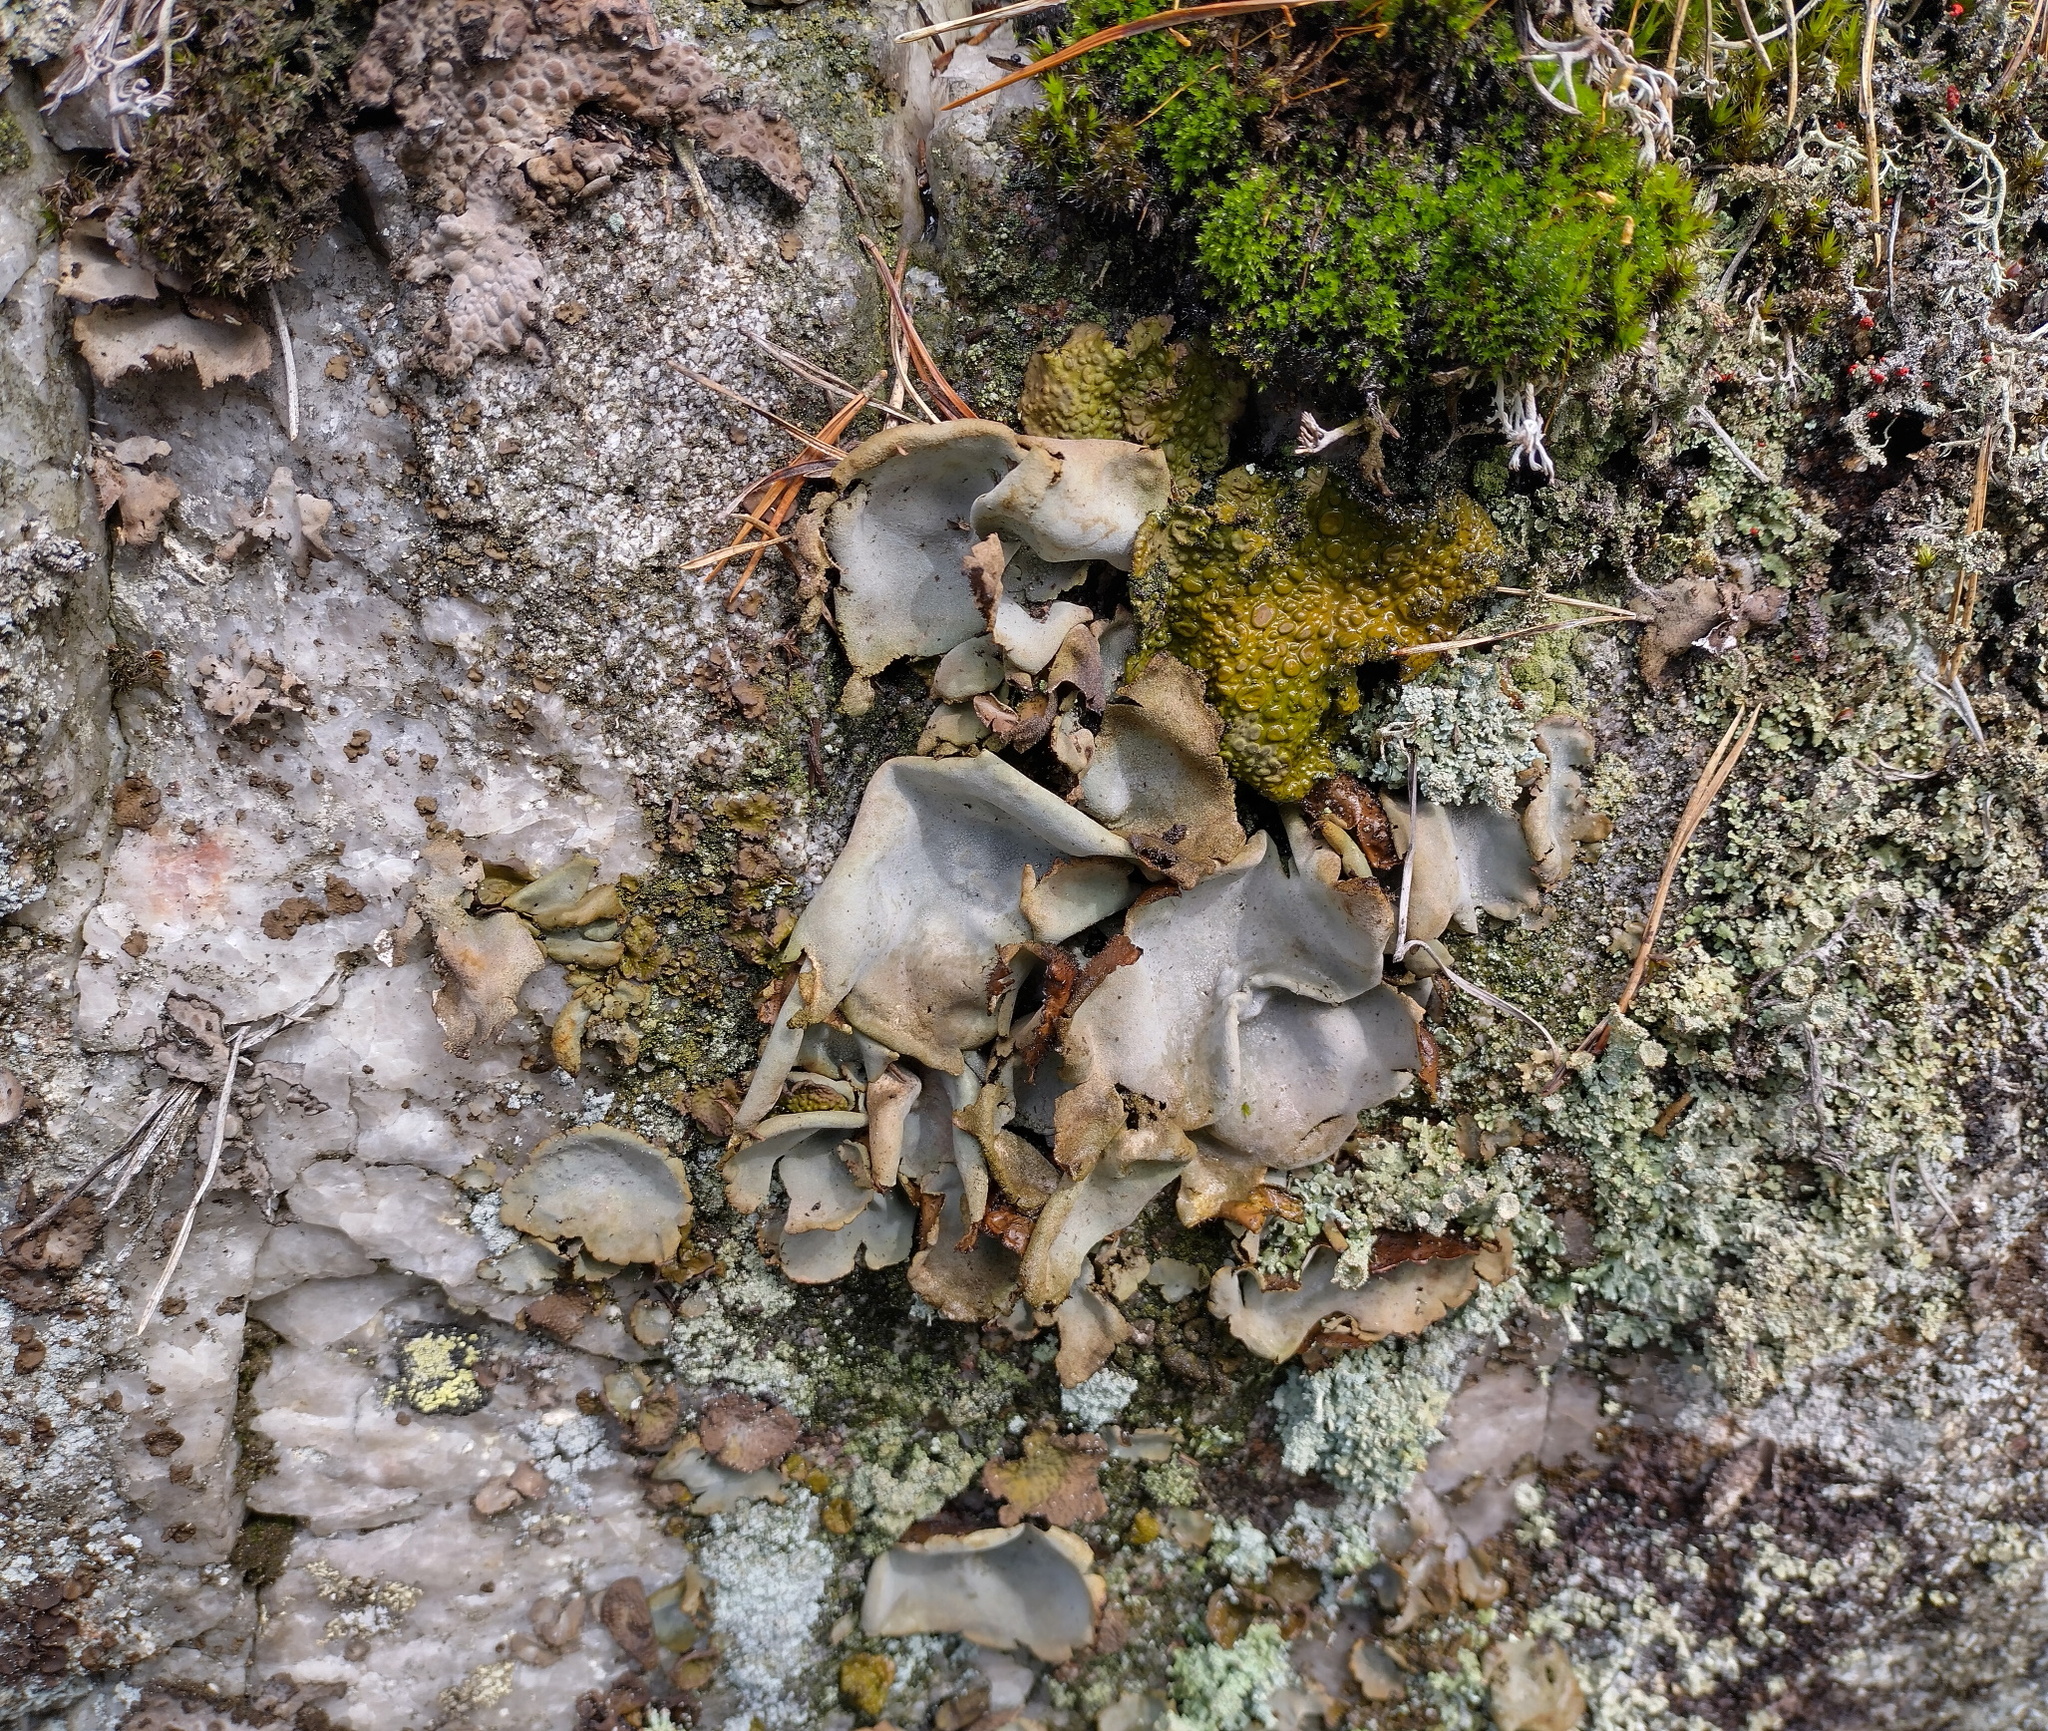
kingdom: Fungi
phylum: Ascomycota
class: Lecanoromycetes
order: Umbilicariales
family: Umbilicariaceae
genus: Umbilicaria
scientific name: Umbilicaria hirsuta
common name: Granulating rocktripe lichen
